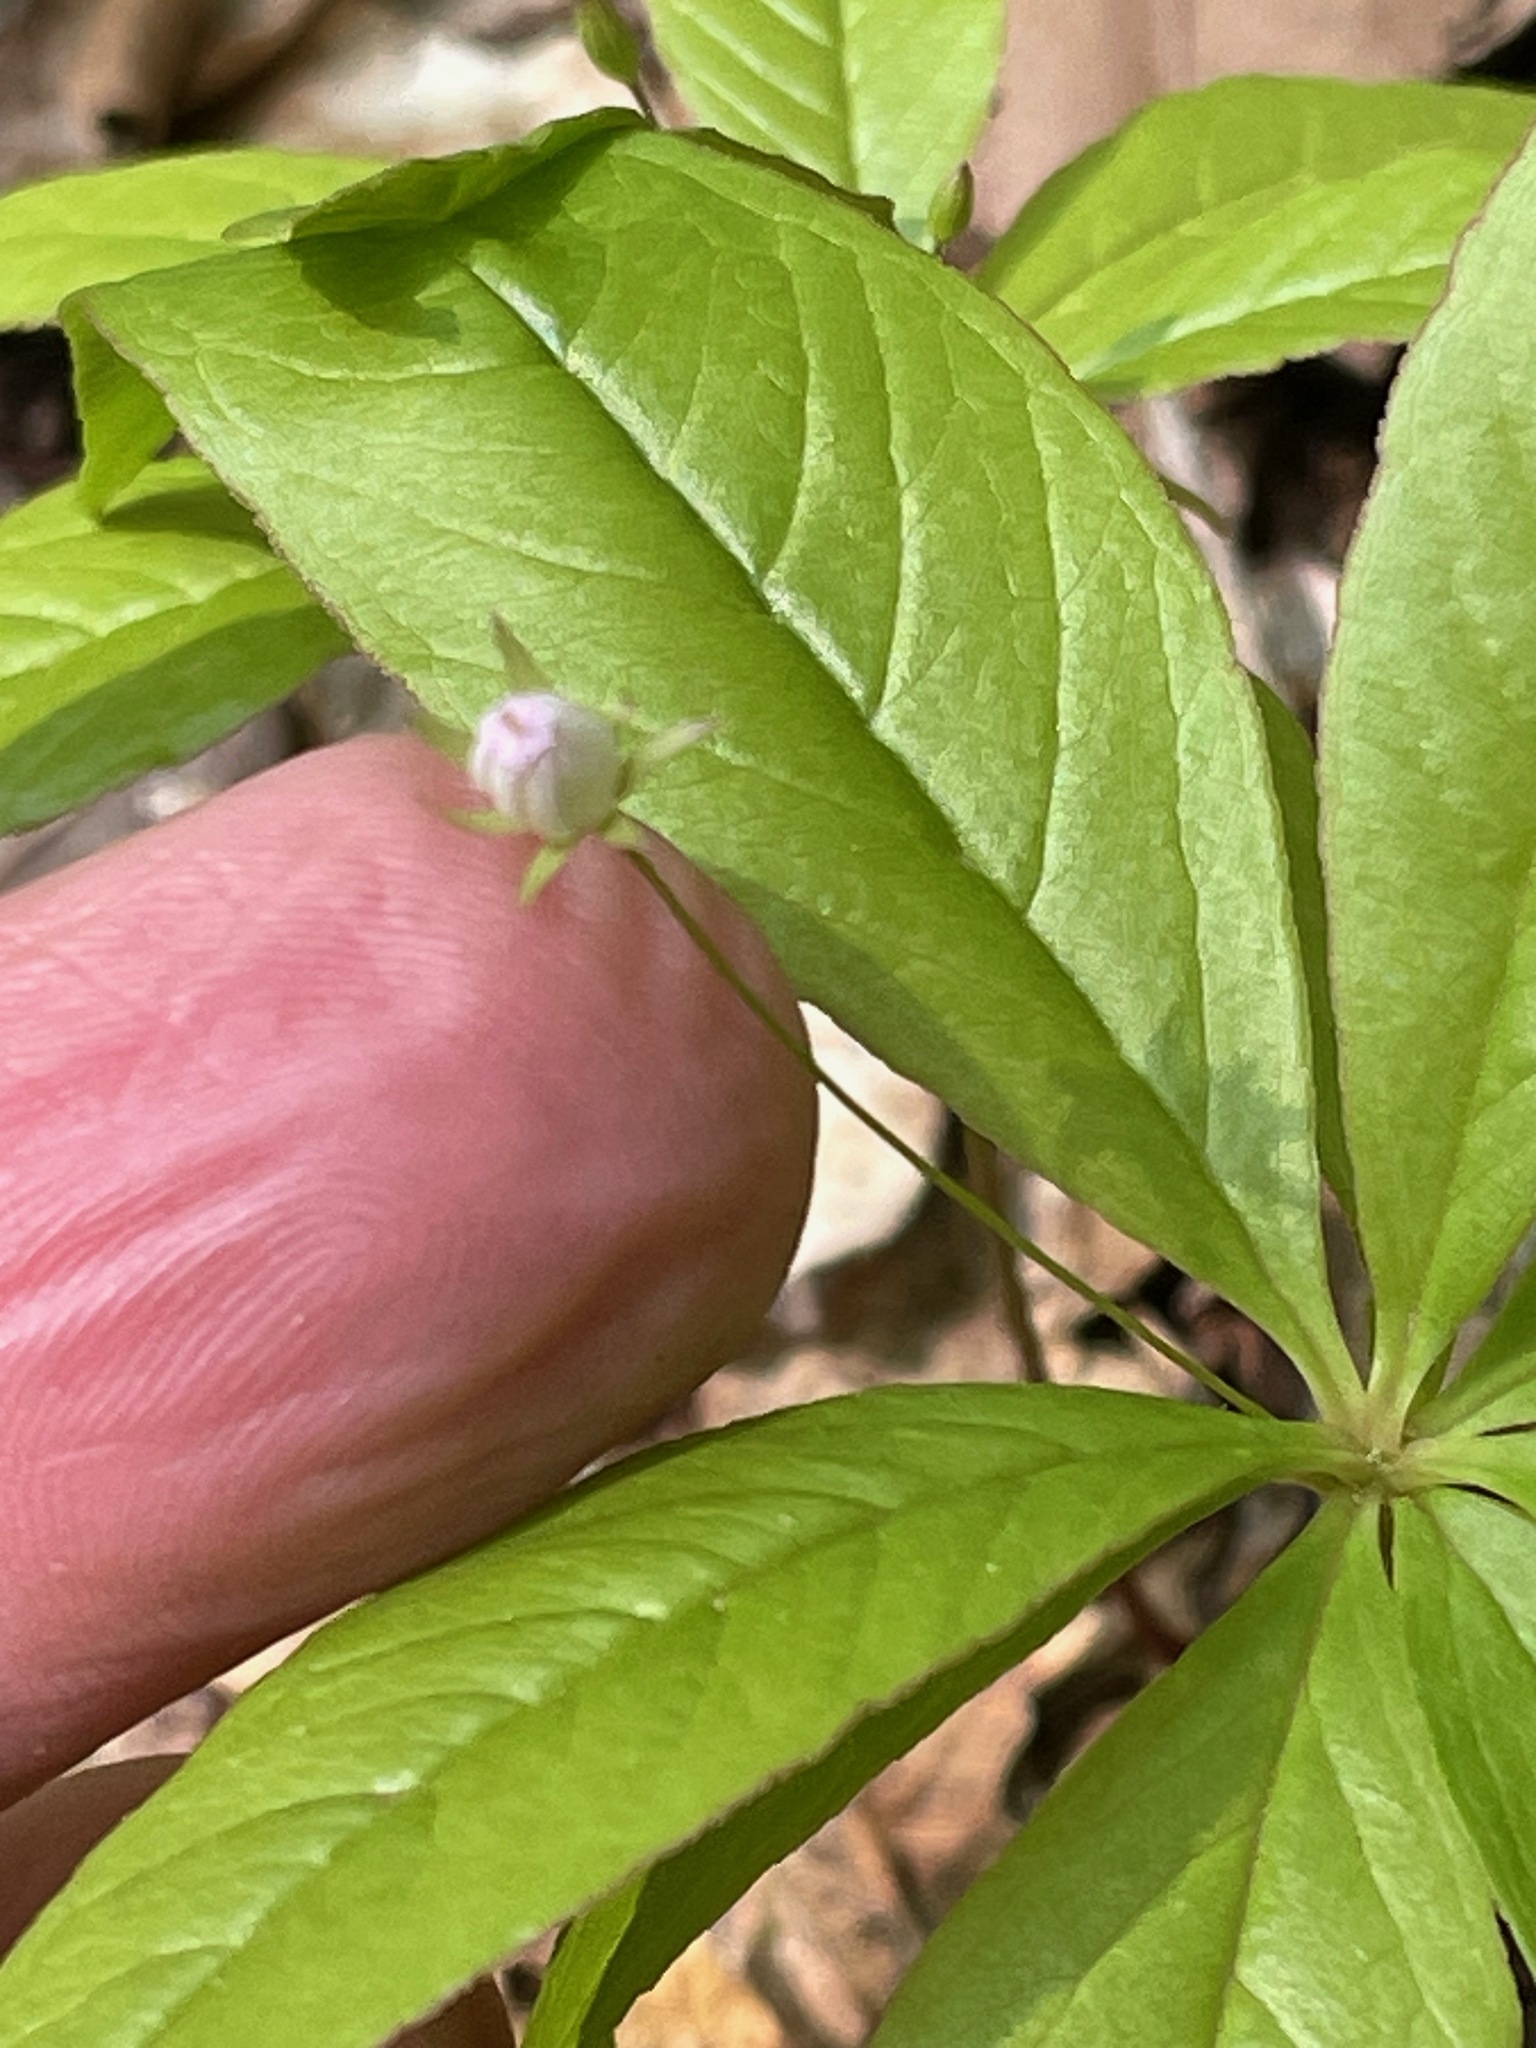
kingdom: Plantae
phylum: Tracheophyta
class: Magnoliopsida
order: Ericales
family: Primulaceae
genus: Lysimachia
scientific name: Lysimachia borealis
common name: American starflower
